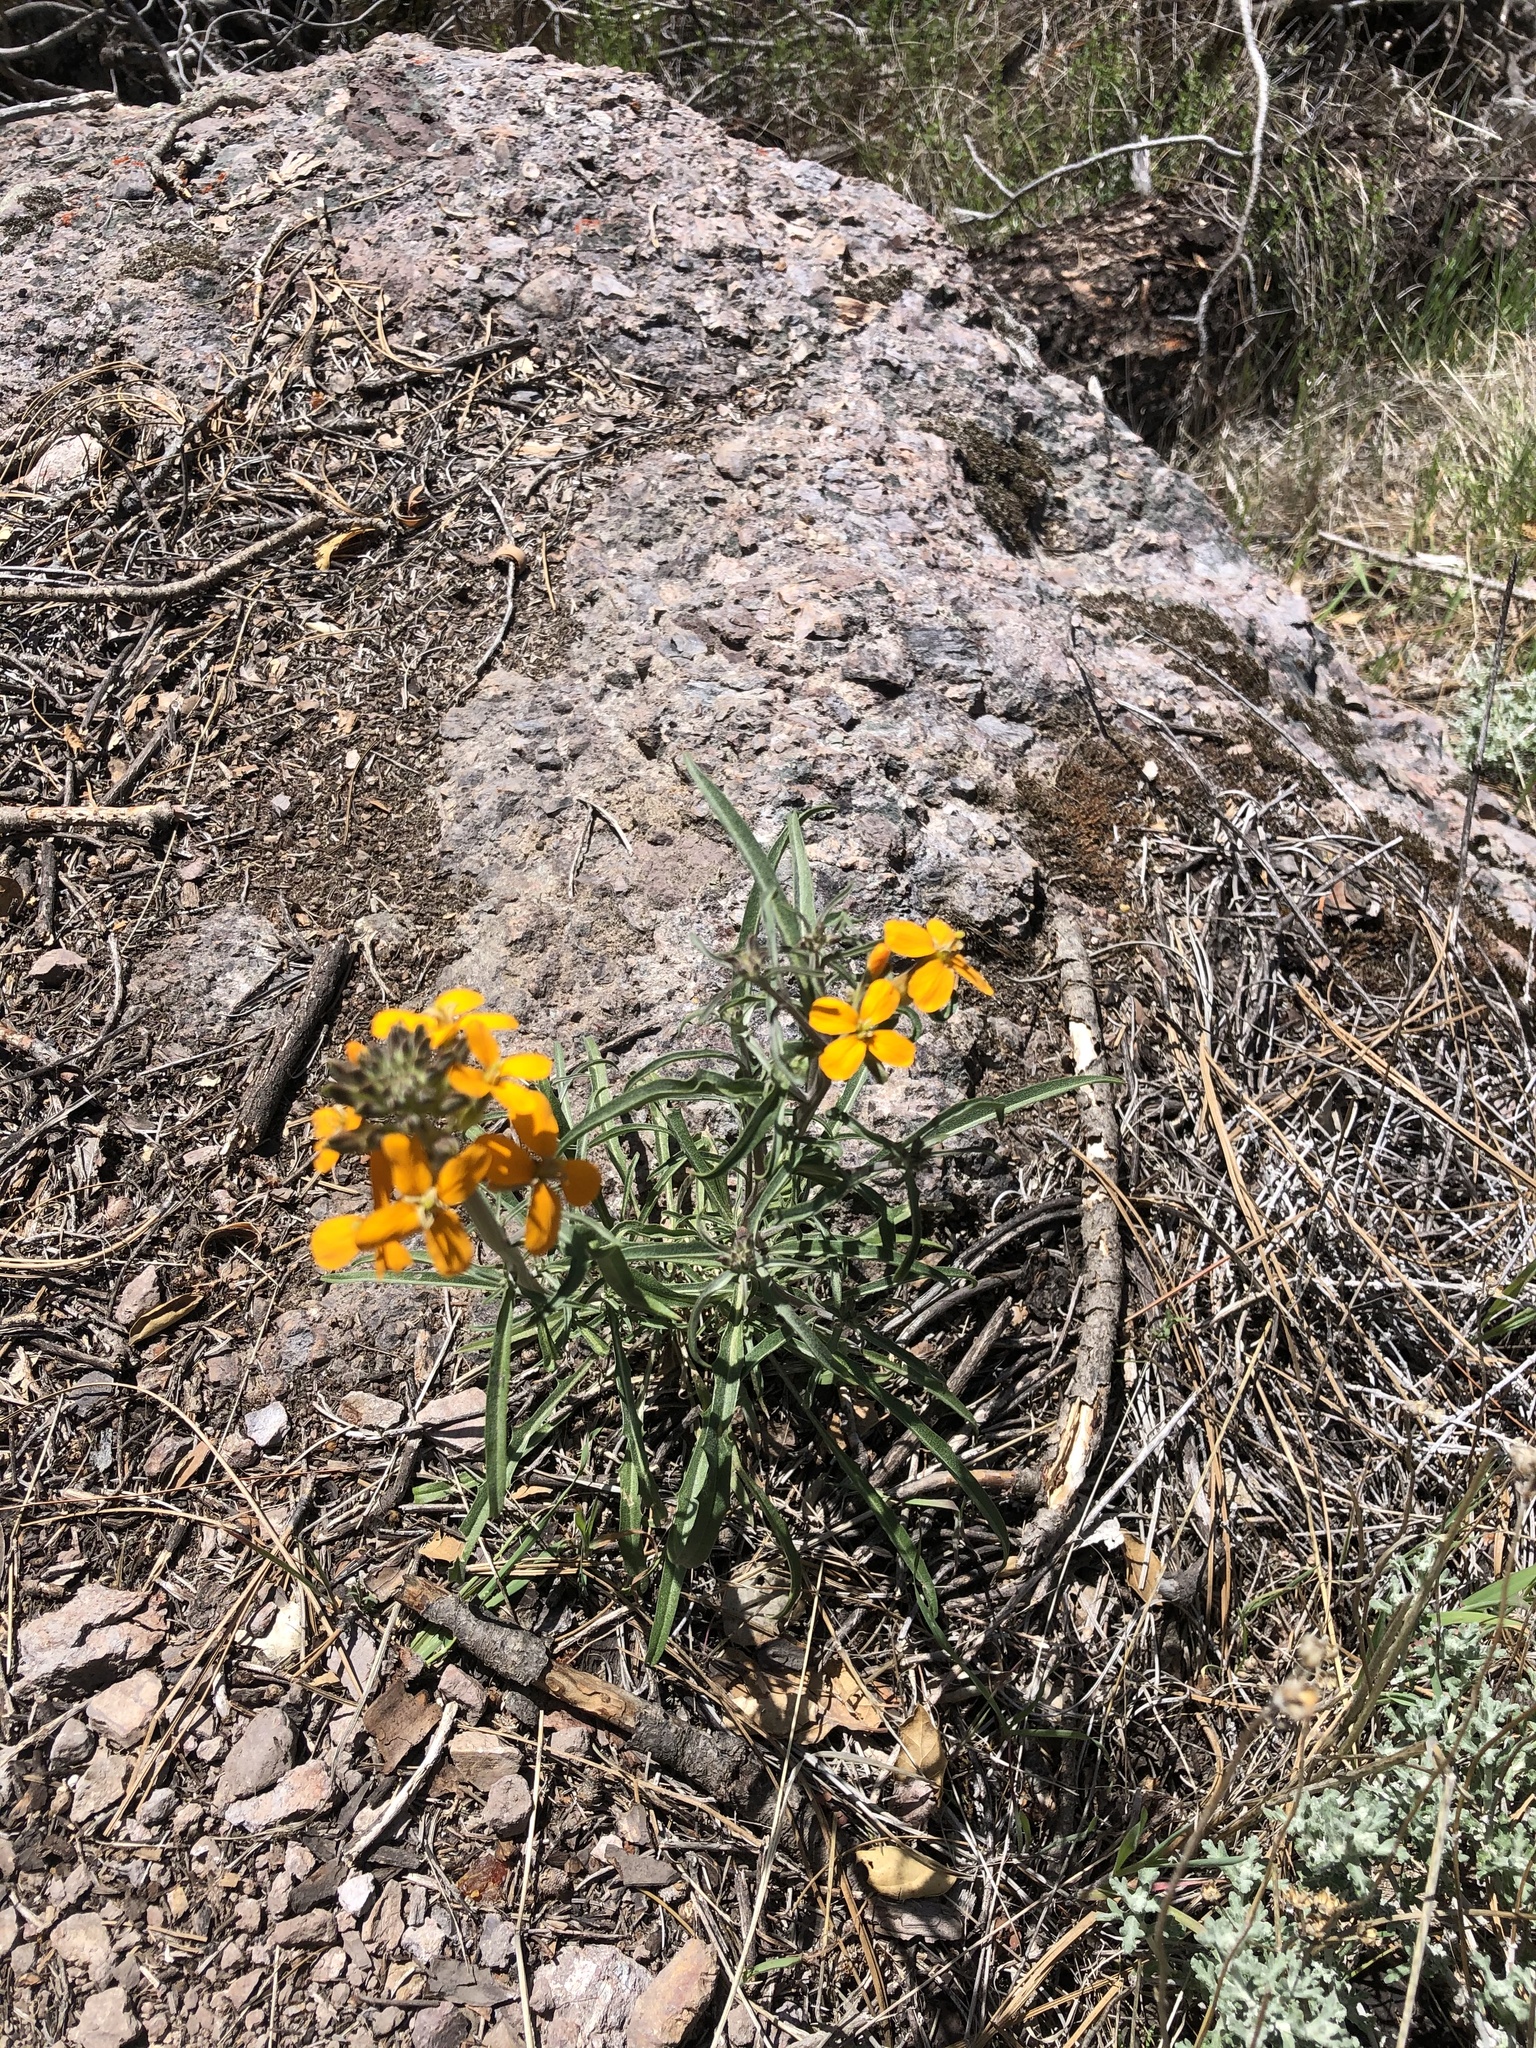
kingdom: Plantae
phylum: Tracheophyta
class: Magnoliopsida
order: Brassicales
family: Brassicaceae
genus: Erysimum
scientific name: Erysimum capitatum
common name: Western wallflower
